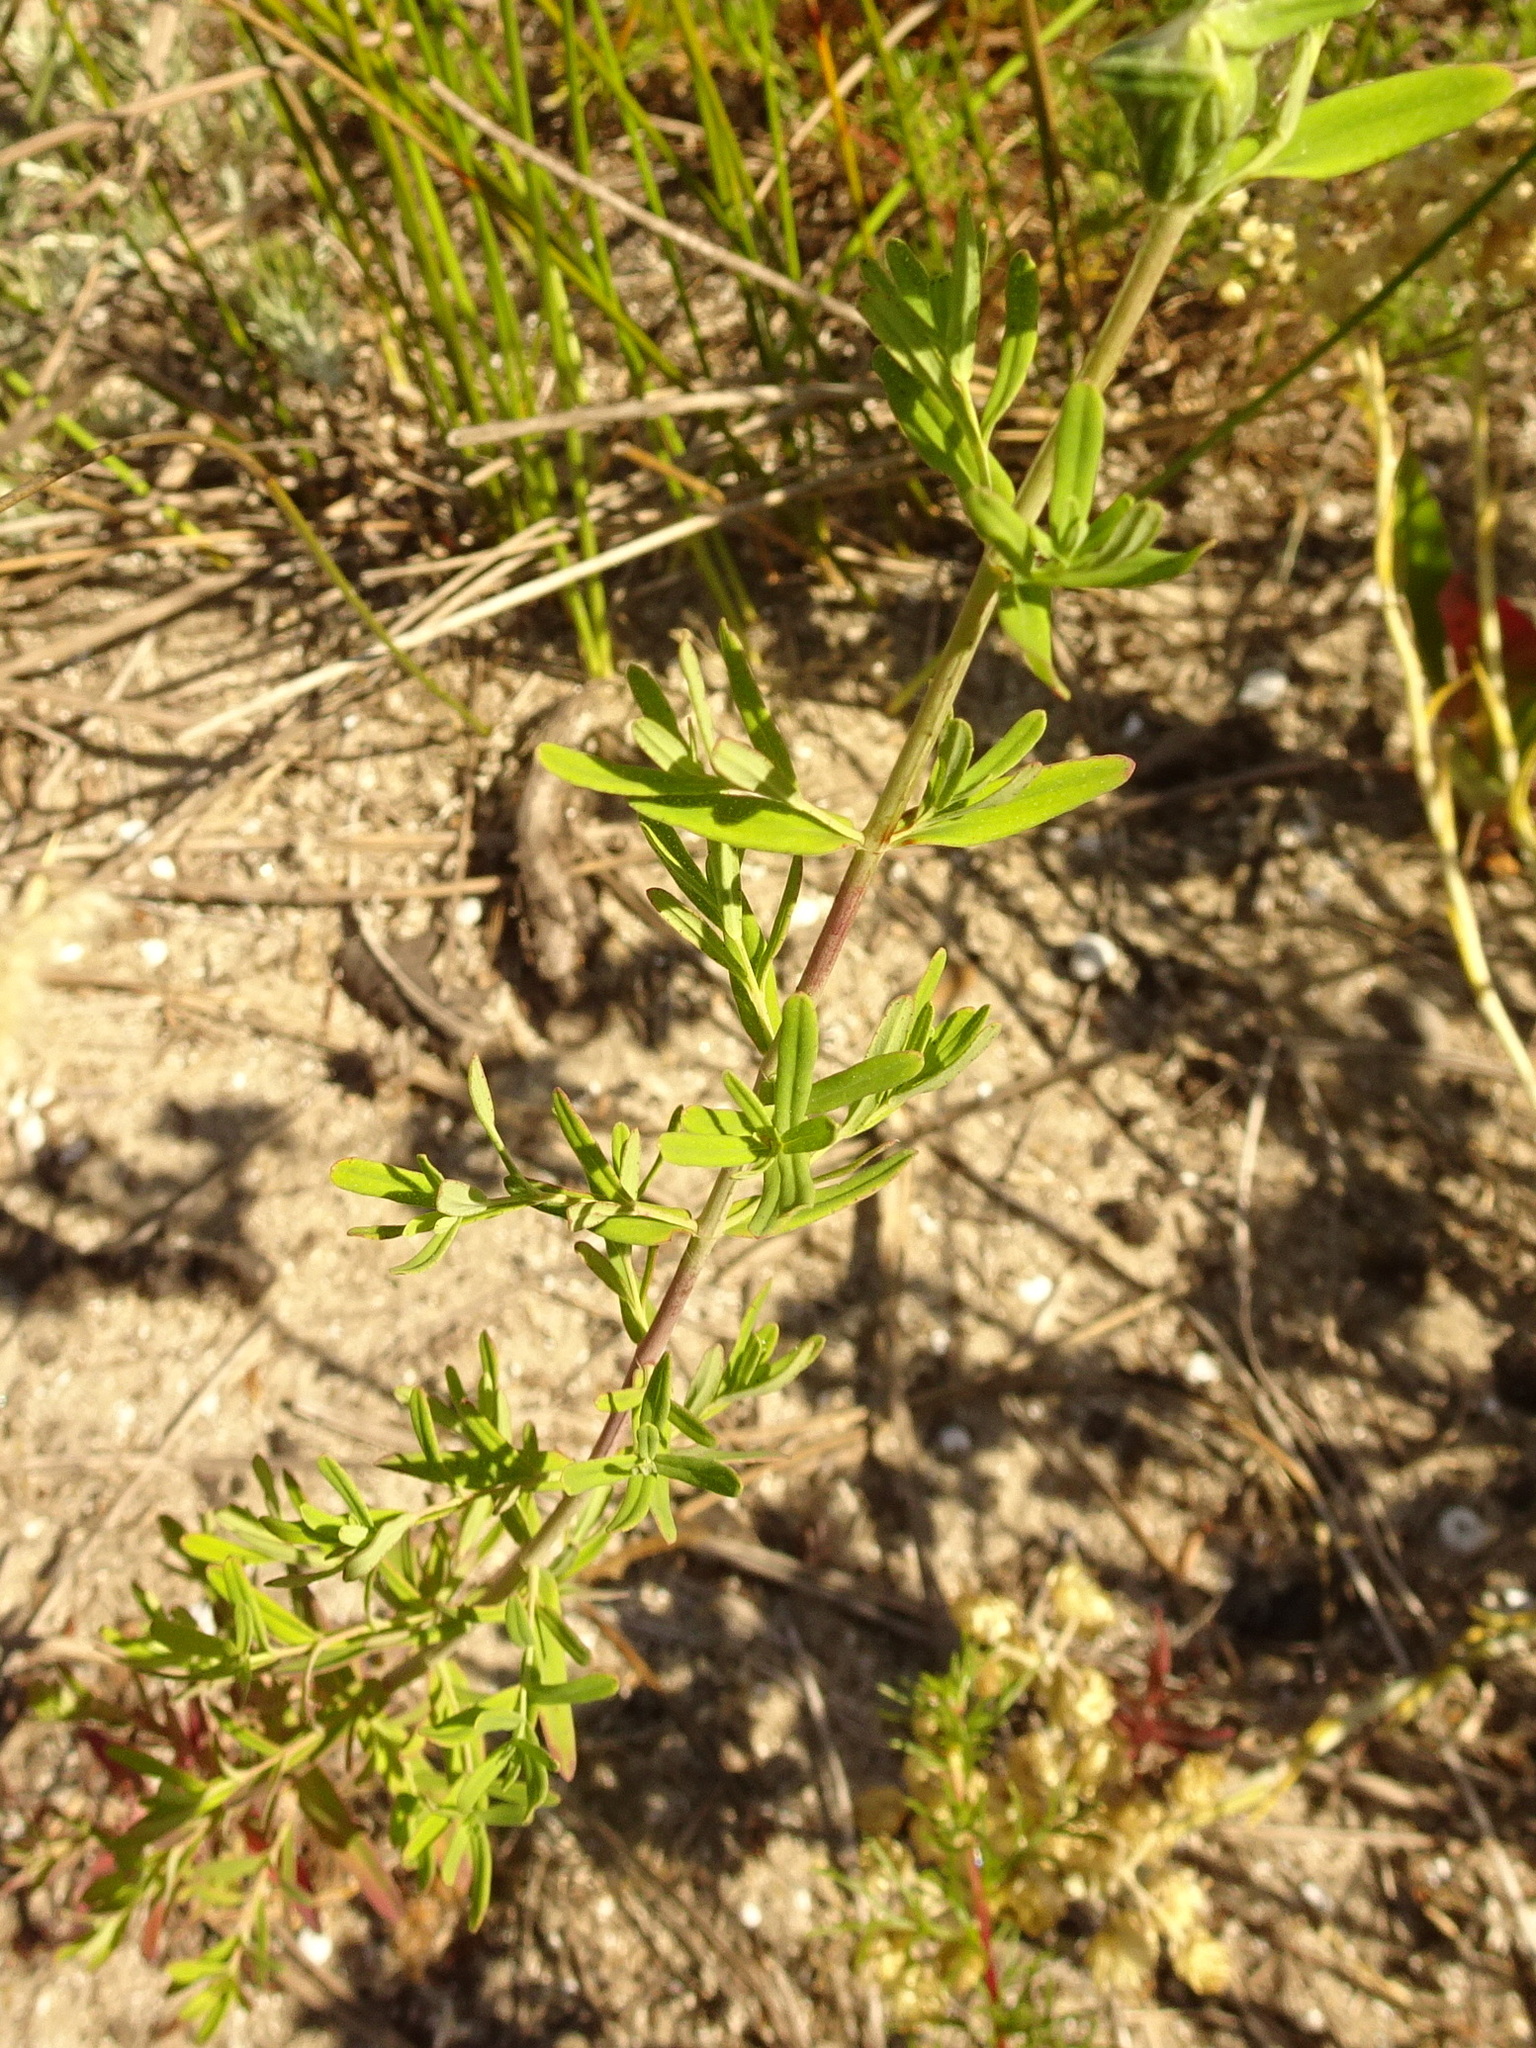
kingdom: Plantae
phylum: Tracheophyta
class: Magnoliopsida
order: Malpighiales
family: Hypericaceae
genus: Hypericum
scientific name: Hypericum perforatum
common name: Common st. johnswort
